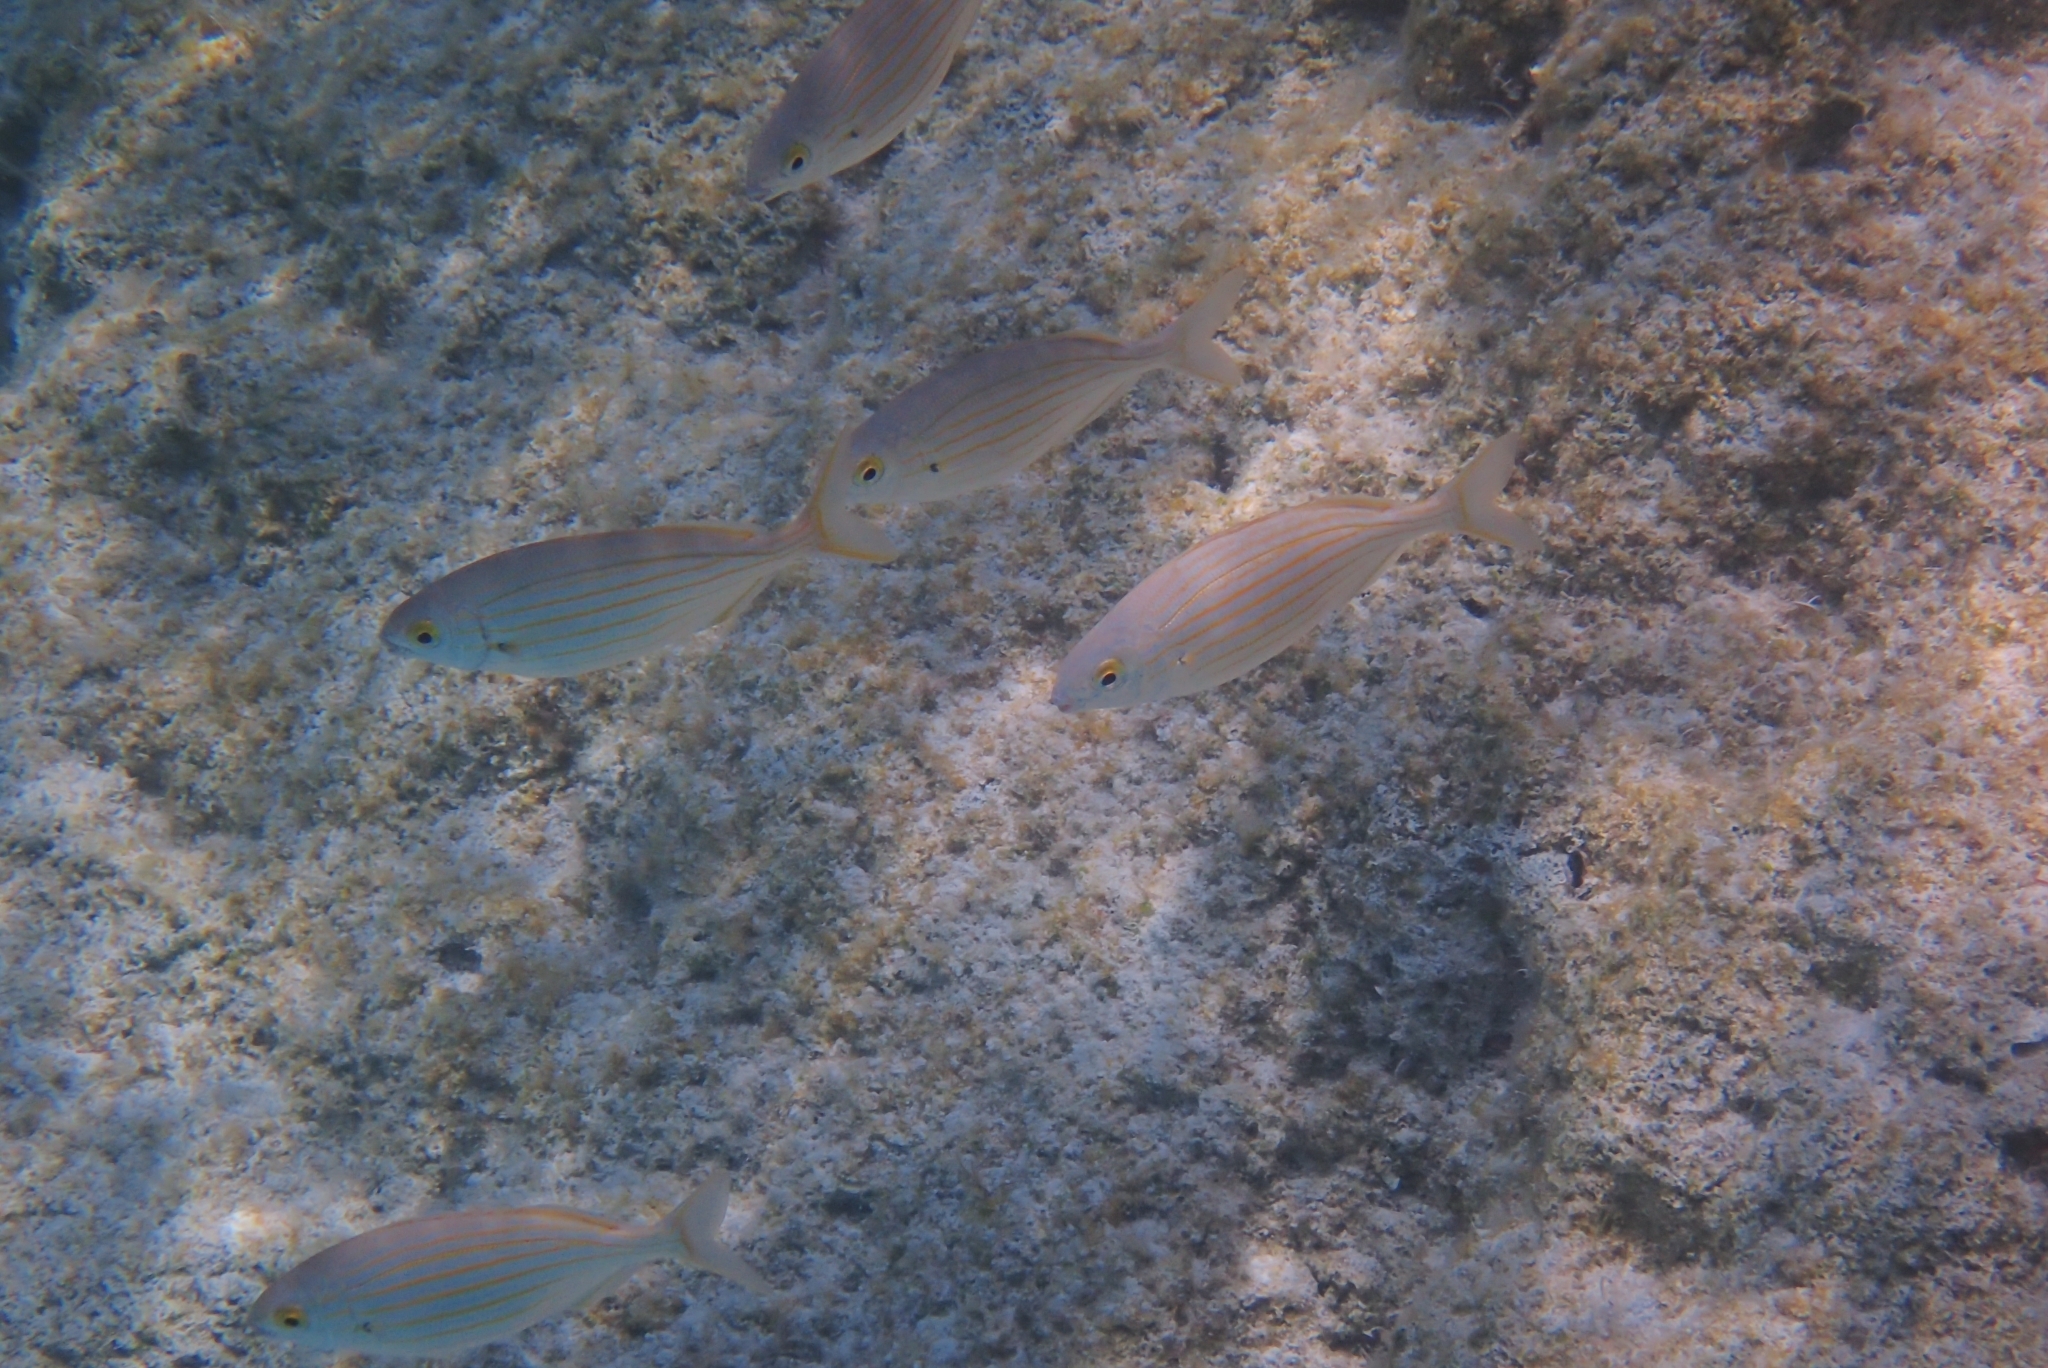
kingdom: Animalia
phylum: Chordata
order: Perciformes
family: Sparidae
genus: Sarpa
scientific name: Sarpa salpa
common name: Salema
